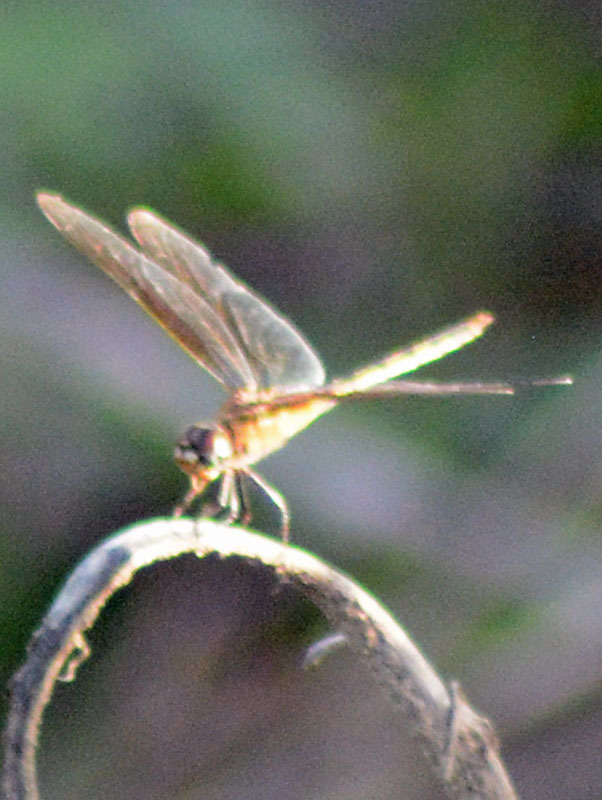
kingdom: Animalia
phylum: Arthropoda
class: Insecta
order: Odonata
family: Libellulidae
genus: Brachymesia
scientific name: Brachymesia herbida
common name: Tawny pennant
